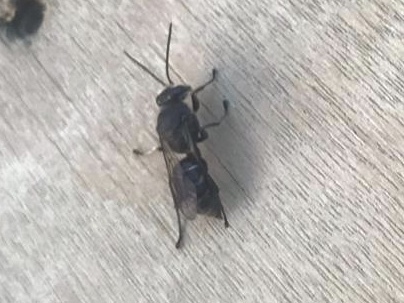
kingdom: Animalia
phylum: Arthropoda
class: Insecta
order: Hymenoptera
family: Crabronidae
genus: Pison
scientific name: Pison spinolae
